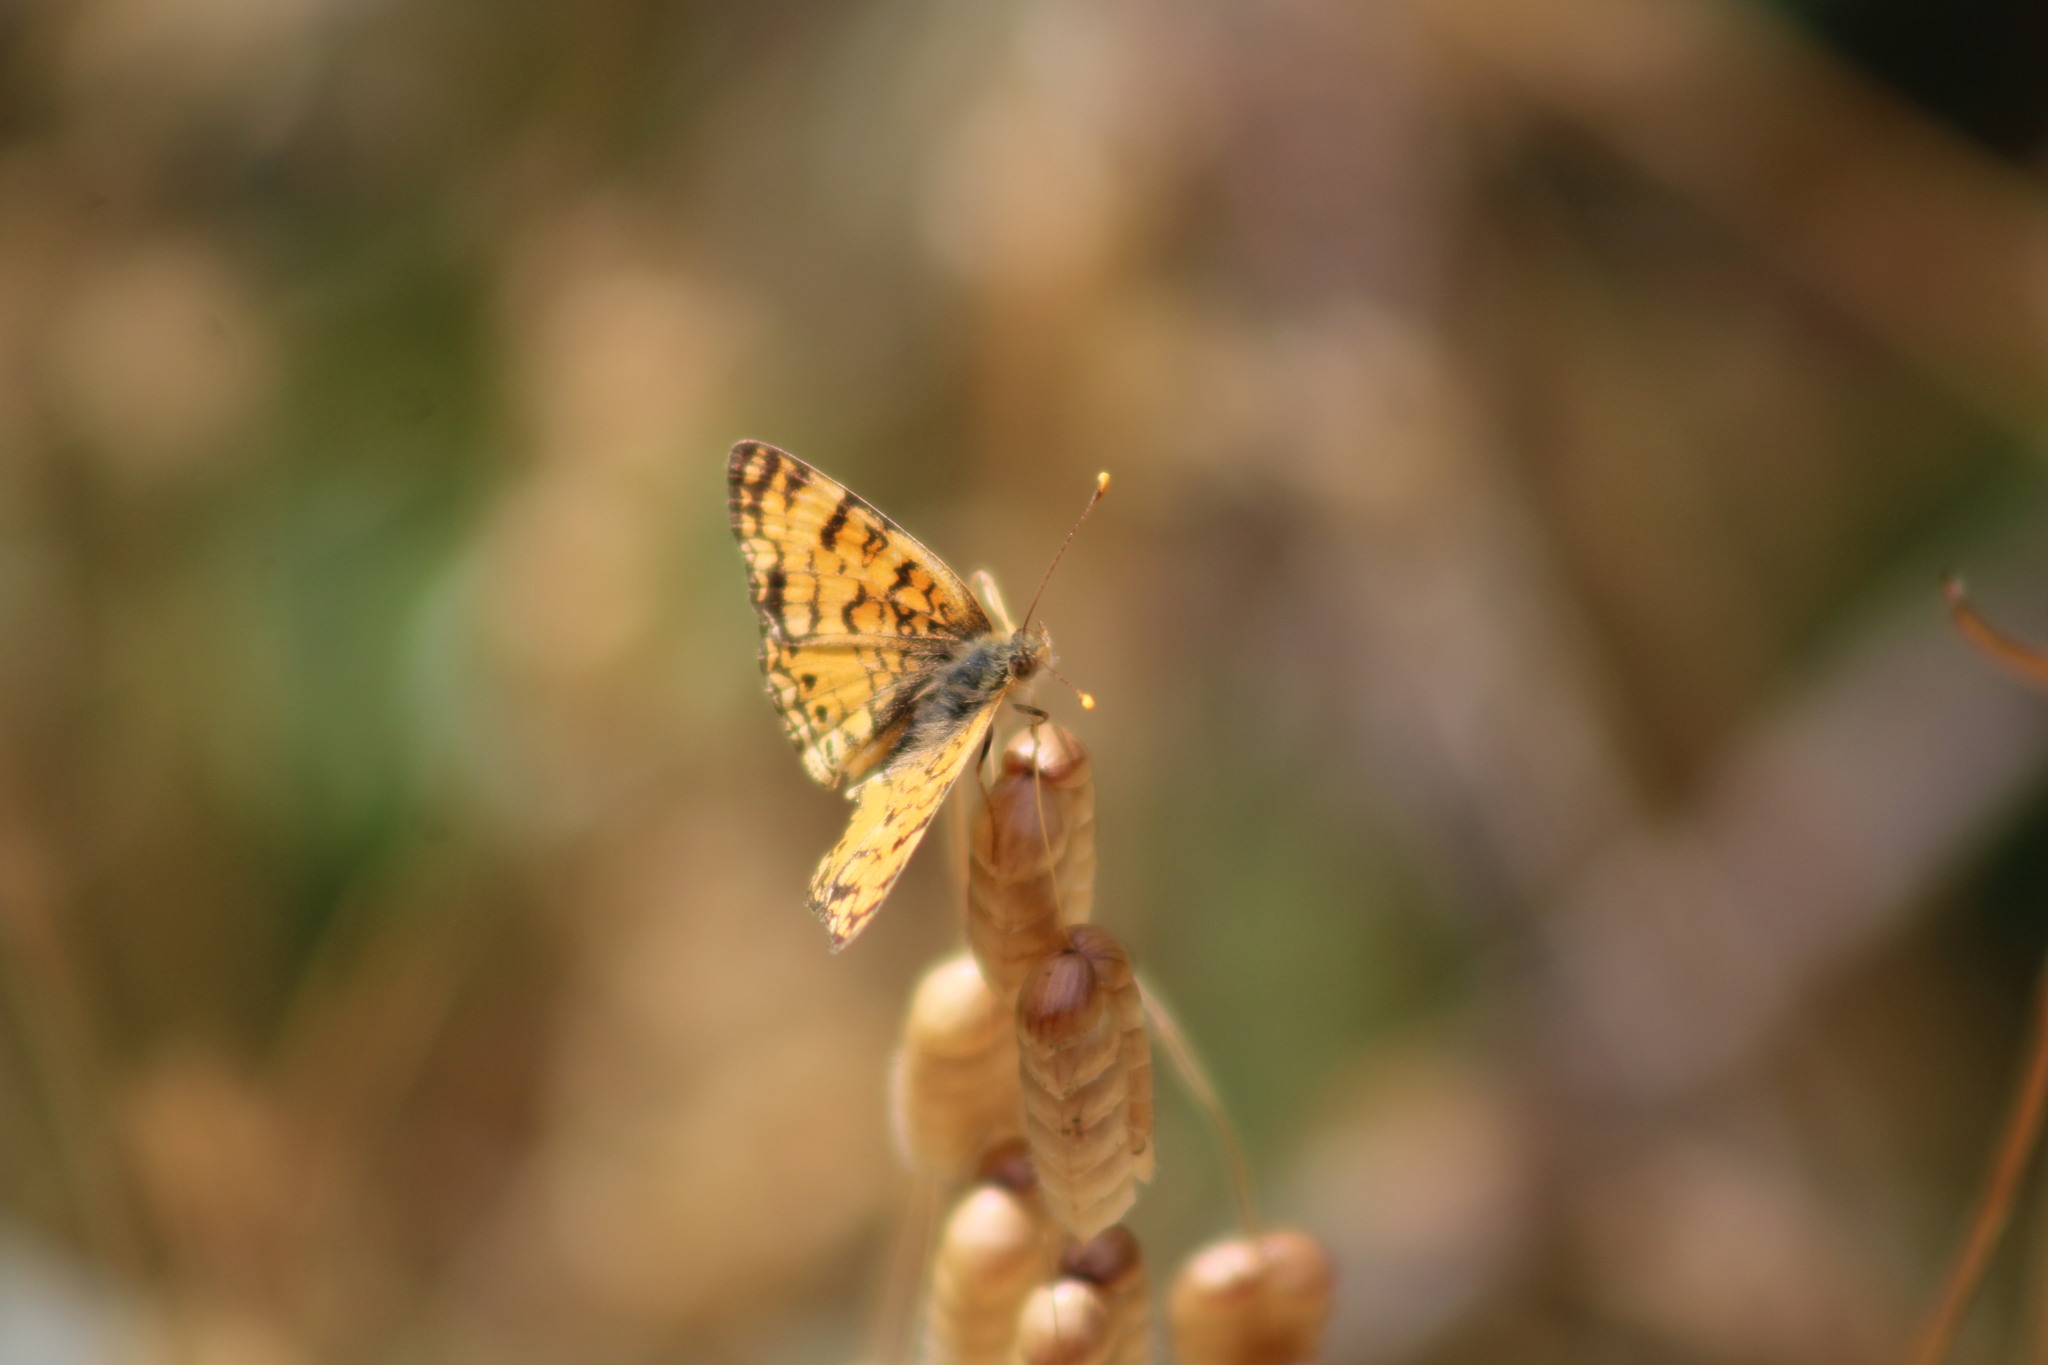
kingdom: Animalia
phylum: Arthropoda
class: Insecta
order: Lepidoptera
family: Nymphalidae
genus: Eresia
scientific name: Eresia aveyrona
